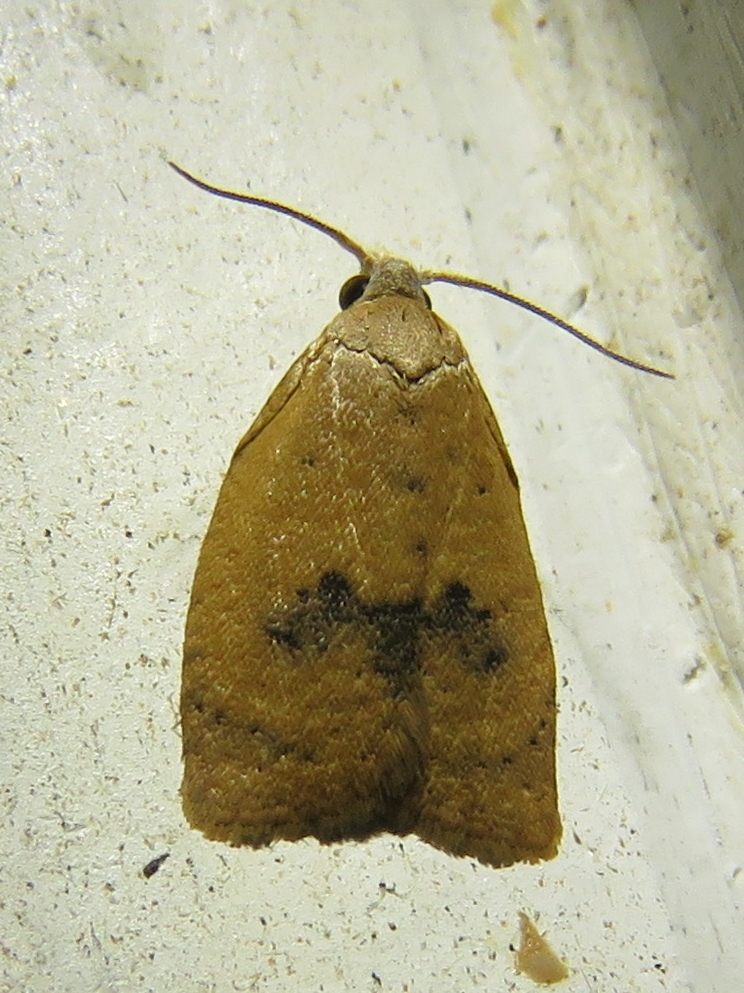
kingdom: Animalia
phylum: Arthropoda
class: Insecta
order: Lepidoptera
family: Tortricidae
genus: Sparganothoides
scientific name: Sparganothoides lentiginosana
